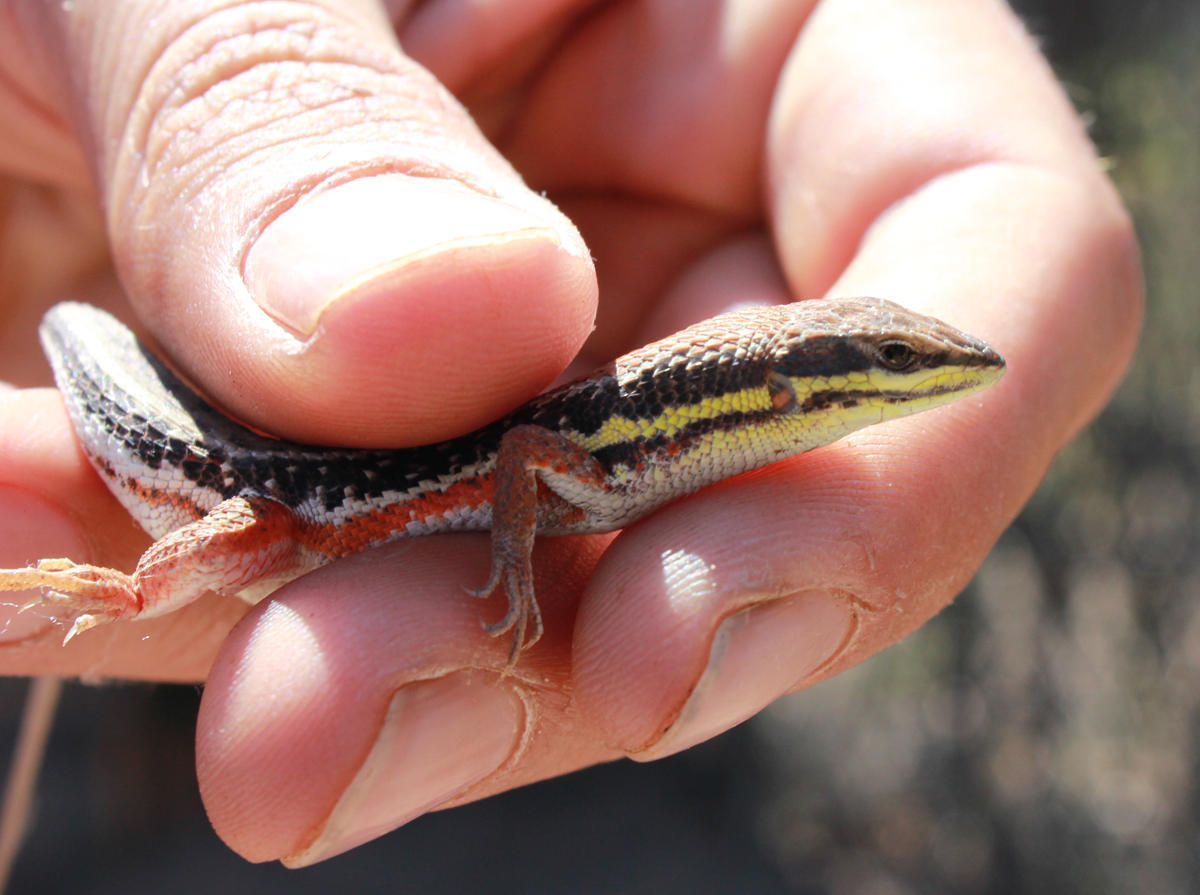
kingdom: Animalia
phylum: Chordata
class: Squamata
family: Lacertidae
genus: Ichnotropis
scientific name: Ichnotropis capensis
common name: Cape rough-scaled lizard
